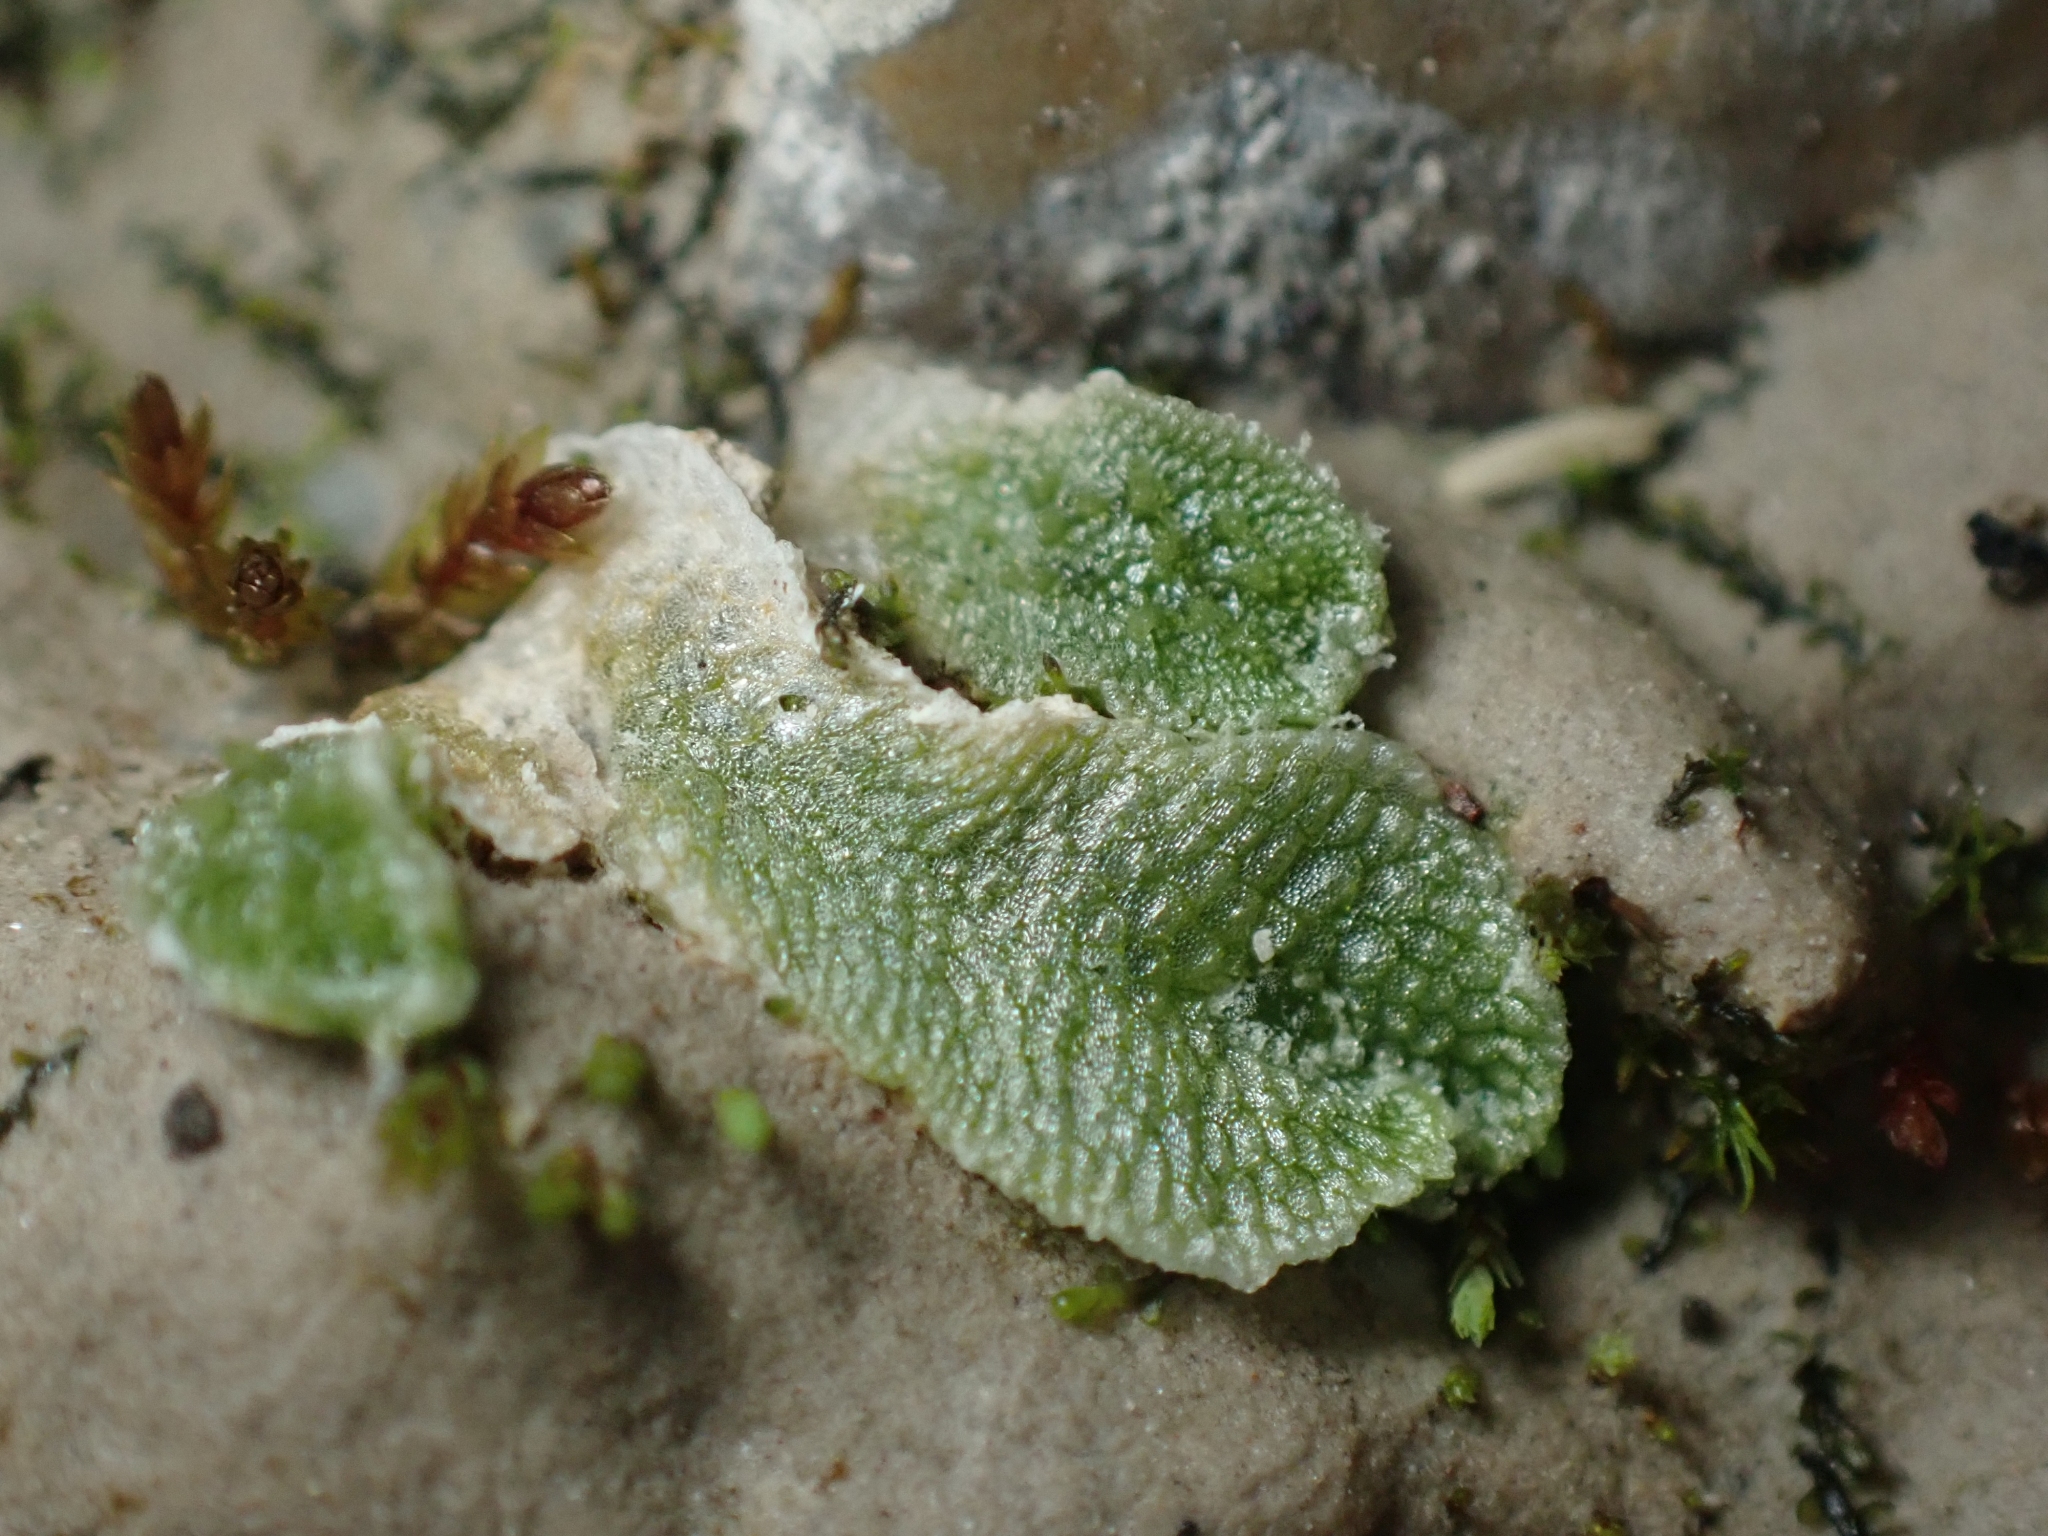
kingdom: Plantae
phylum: Marchantiophyta
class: Marchantiopsida
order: Marchantiales
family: Cleveaceae
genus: Sauteria
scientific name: Sauteria alpina
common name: Snow lungwort
